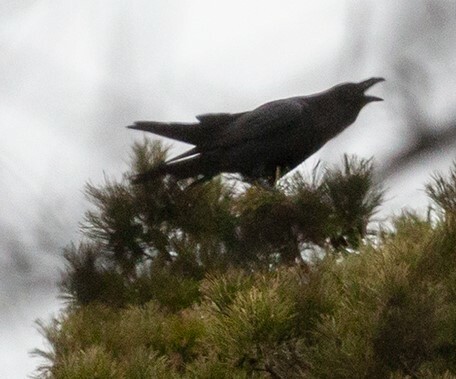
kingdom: Animalia
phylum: Chordata
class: Aves
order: Passeriformes
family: Corvidae
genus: Corvus
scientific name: Corvus corax
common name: Common raven
